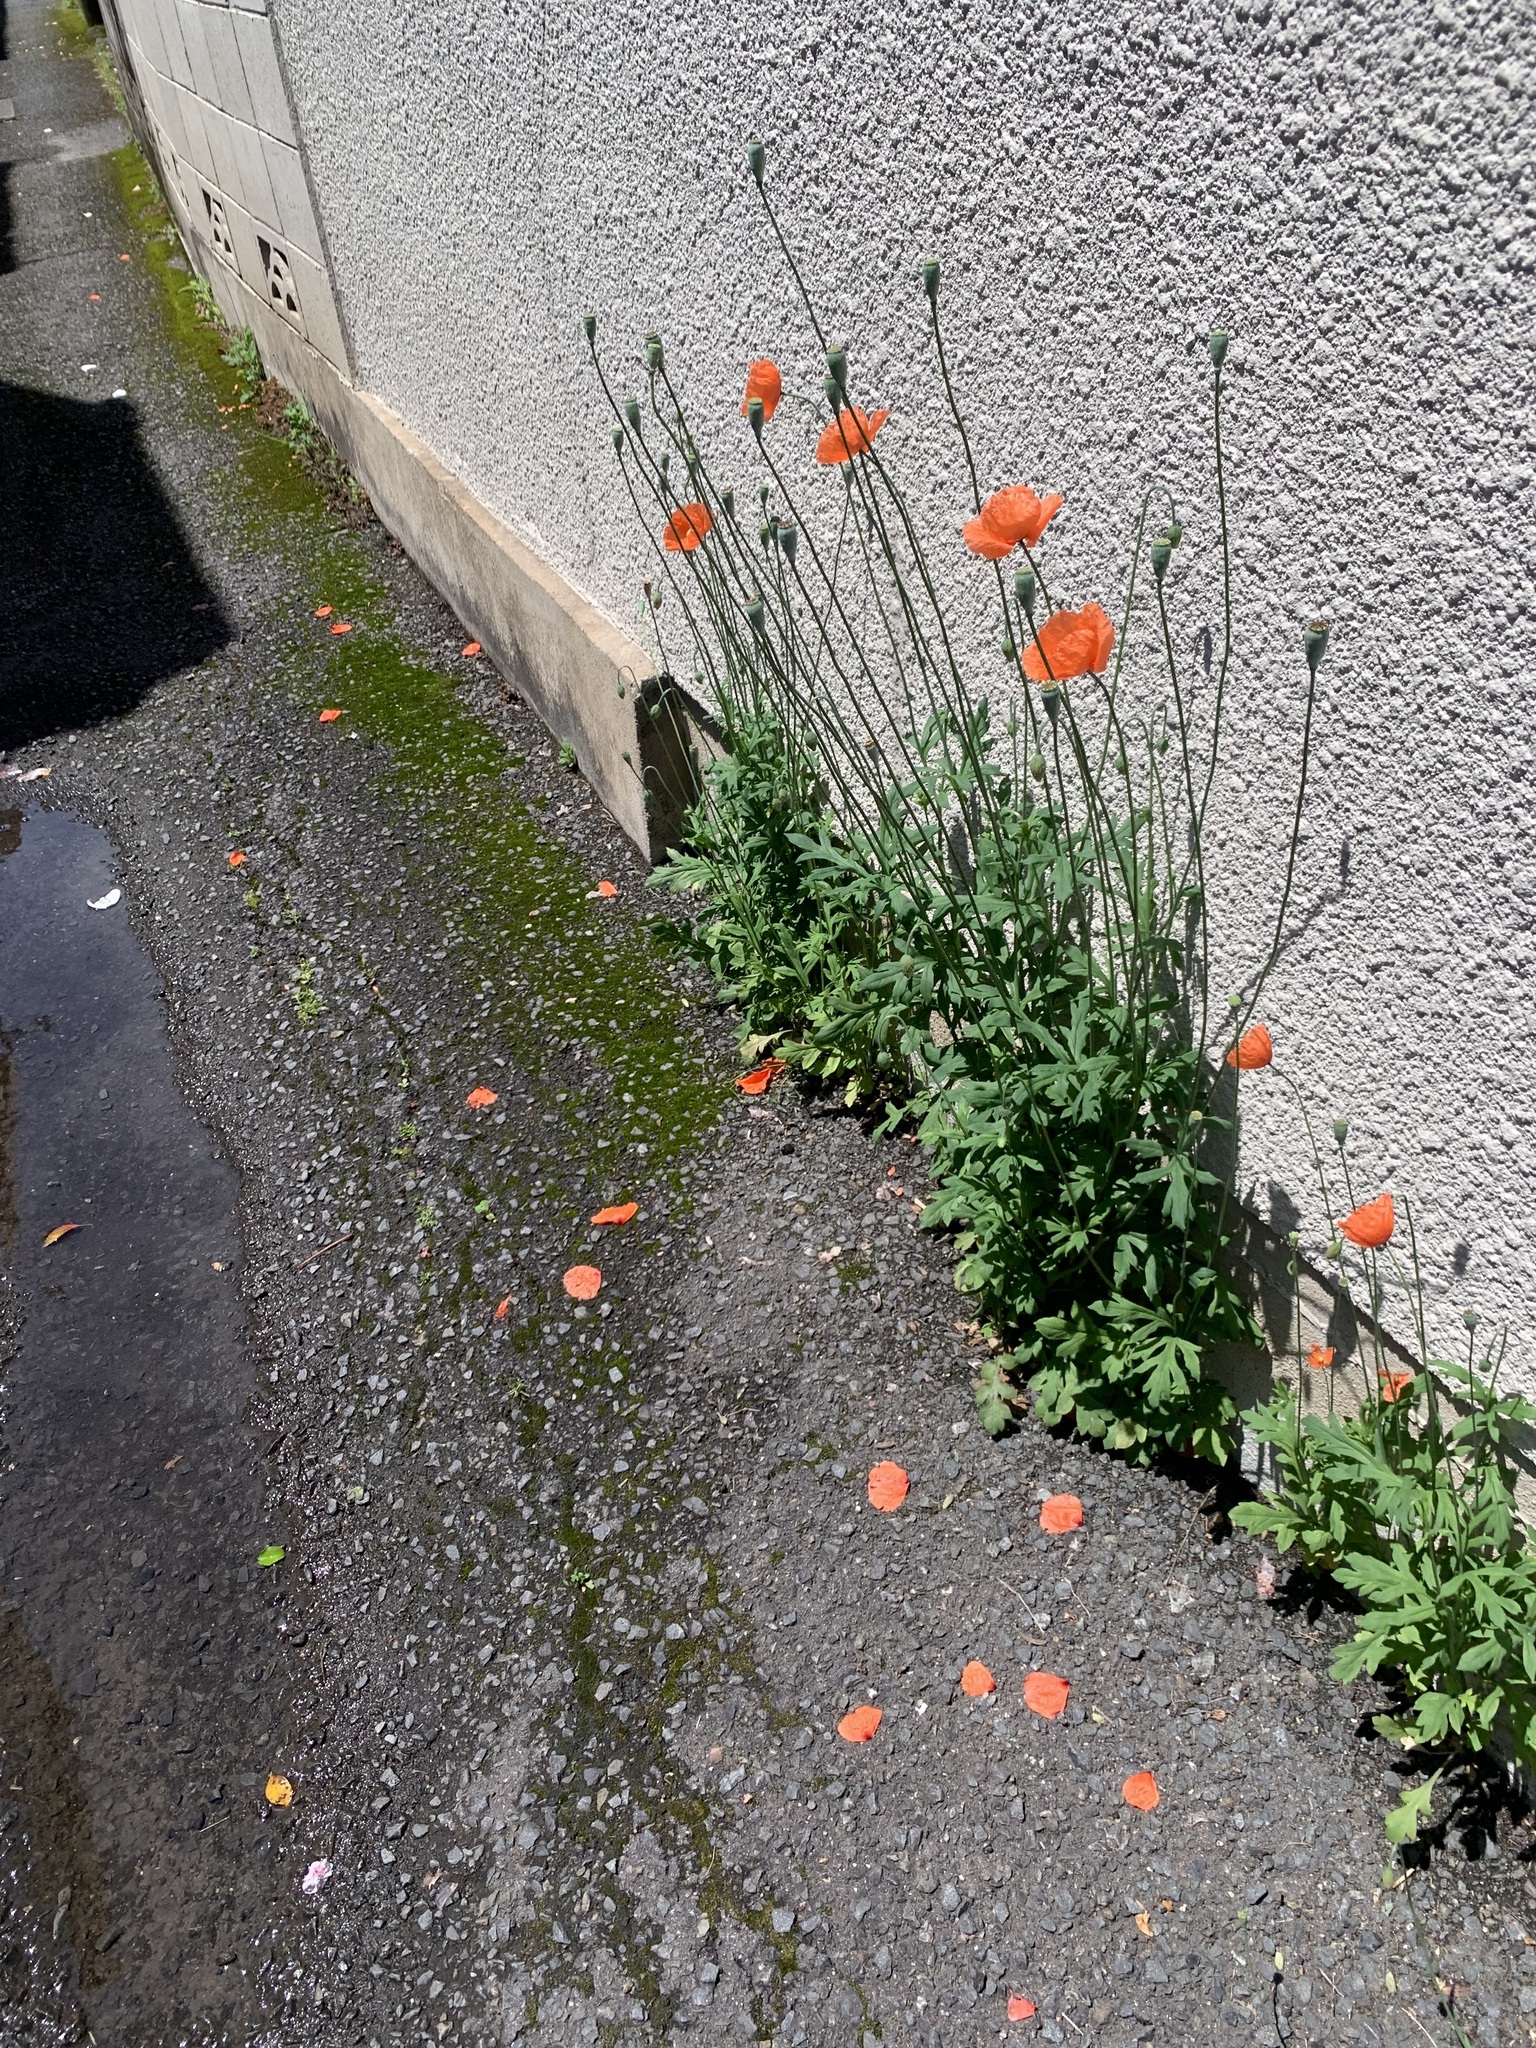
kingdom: Plantae
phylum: Tracheophyta
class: Magnoliopsida
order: Ranunculales
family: Papaveraceae
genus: Papaver
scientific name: Papaver dubium
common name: Long-headed poppy
